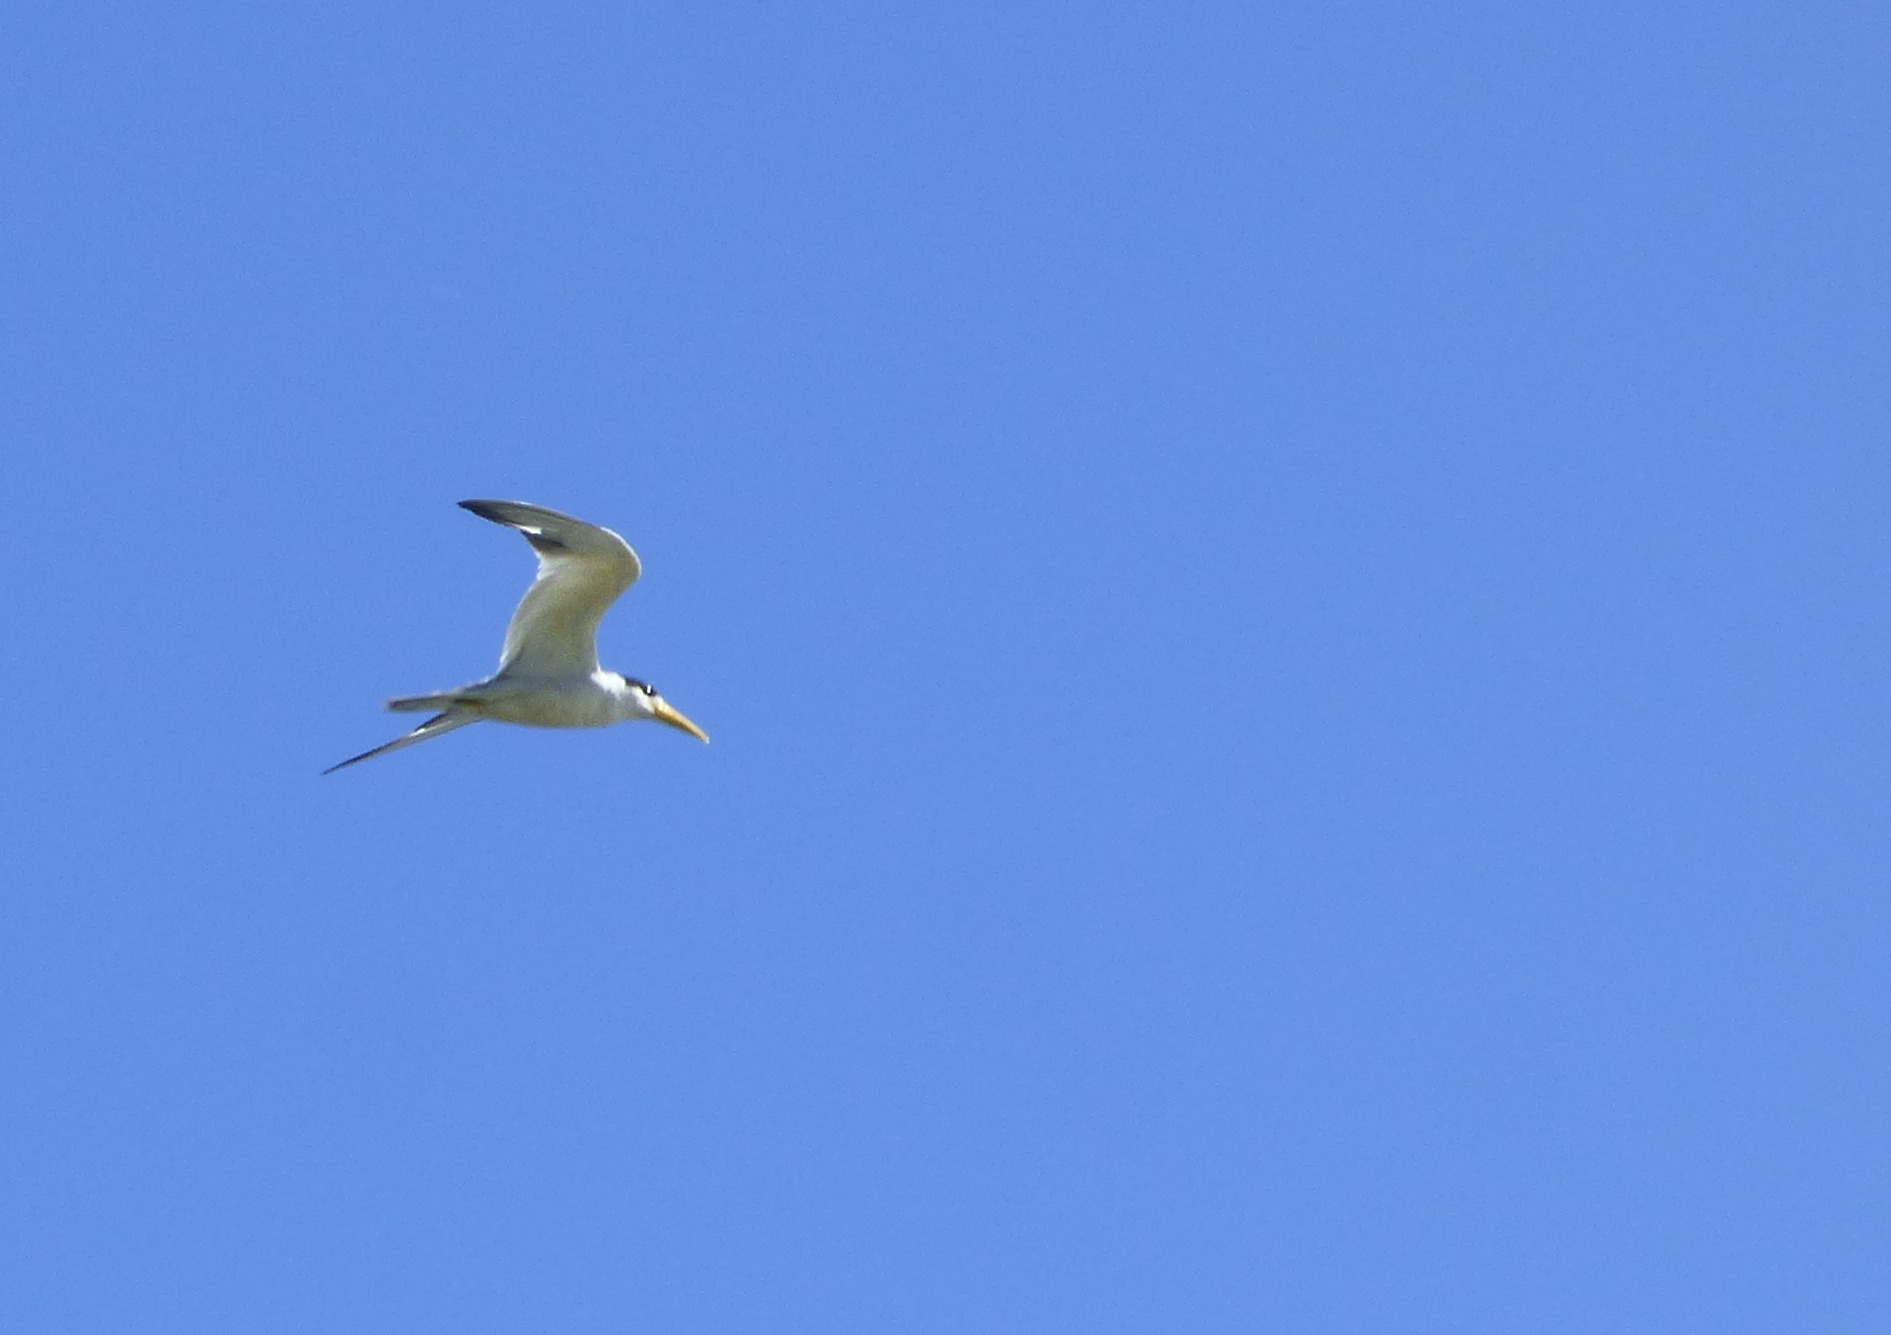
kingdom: Animalia
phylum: Chordata
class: Aves
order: Charadriiformes
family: Laridae
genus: Phaetusa
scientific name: Phaetusa simplex
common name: Large-billed tern
